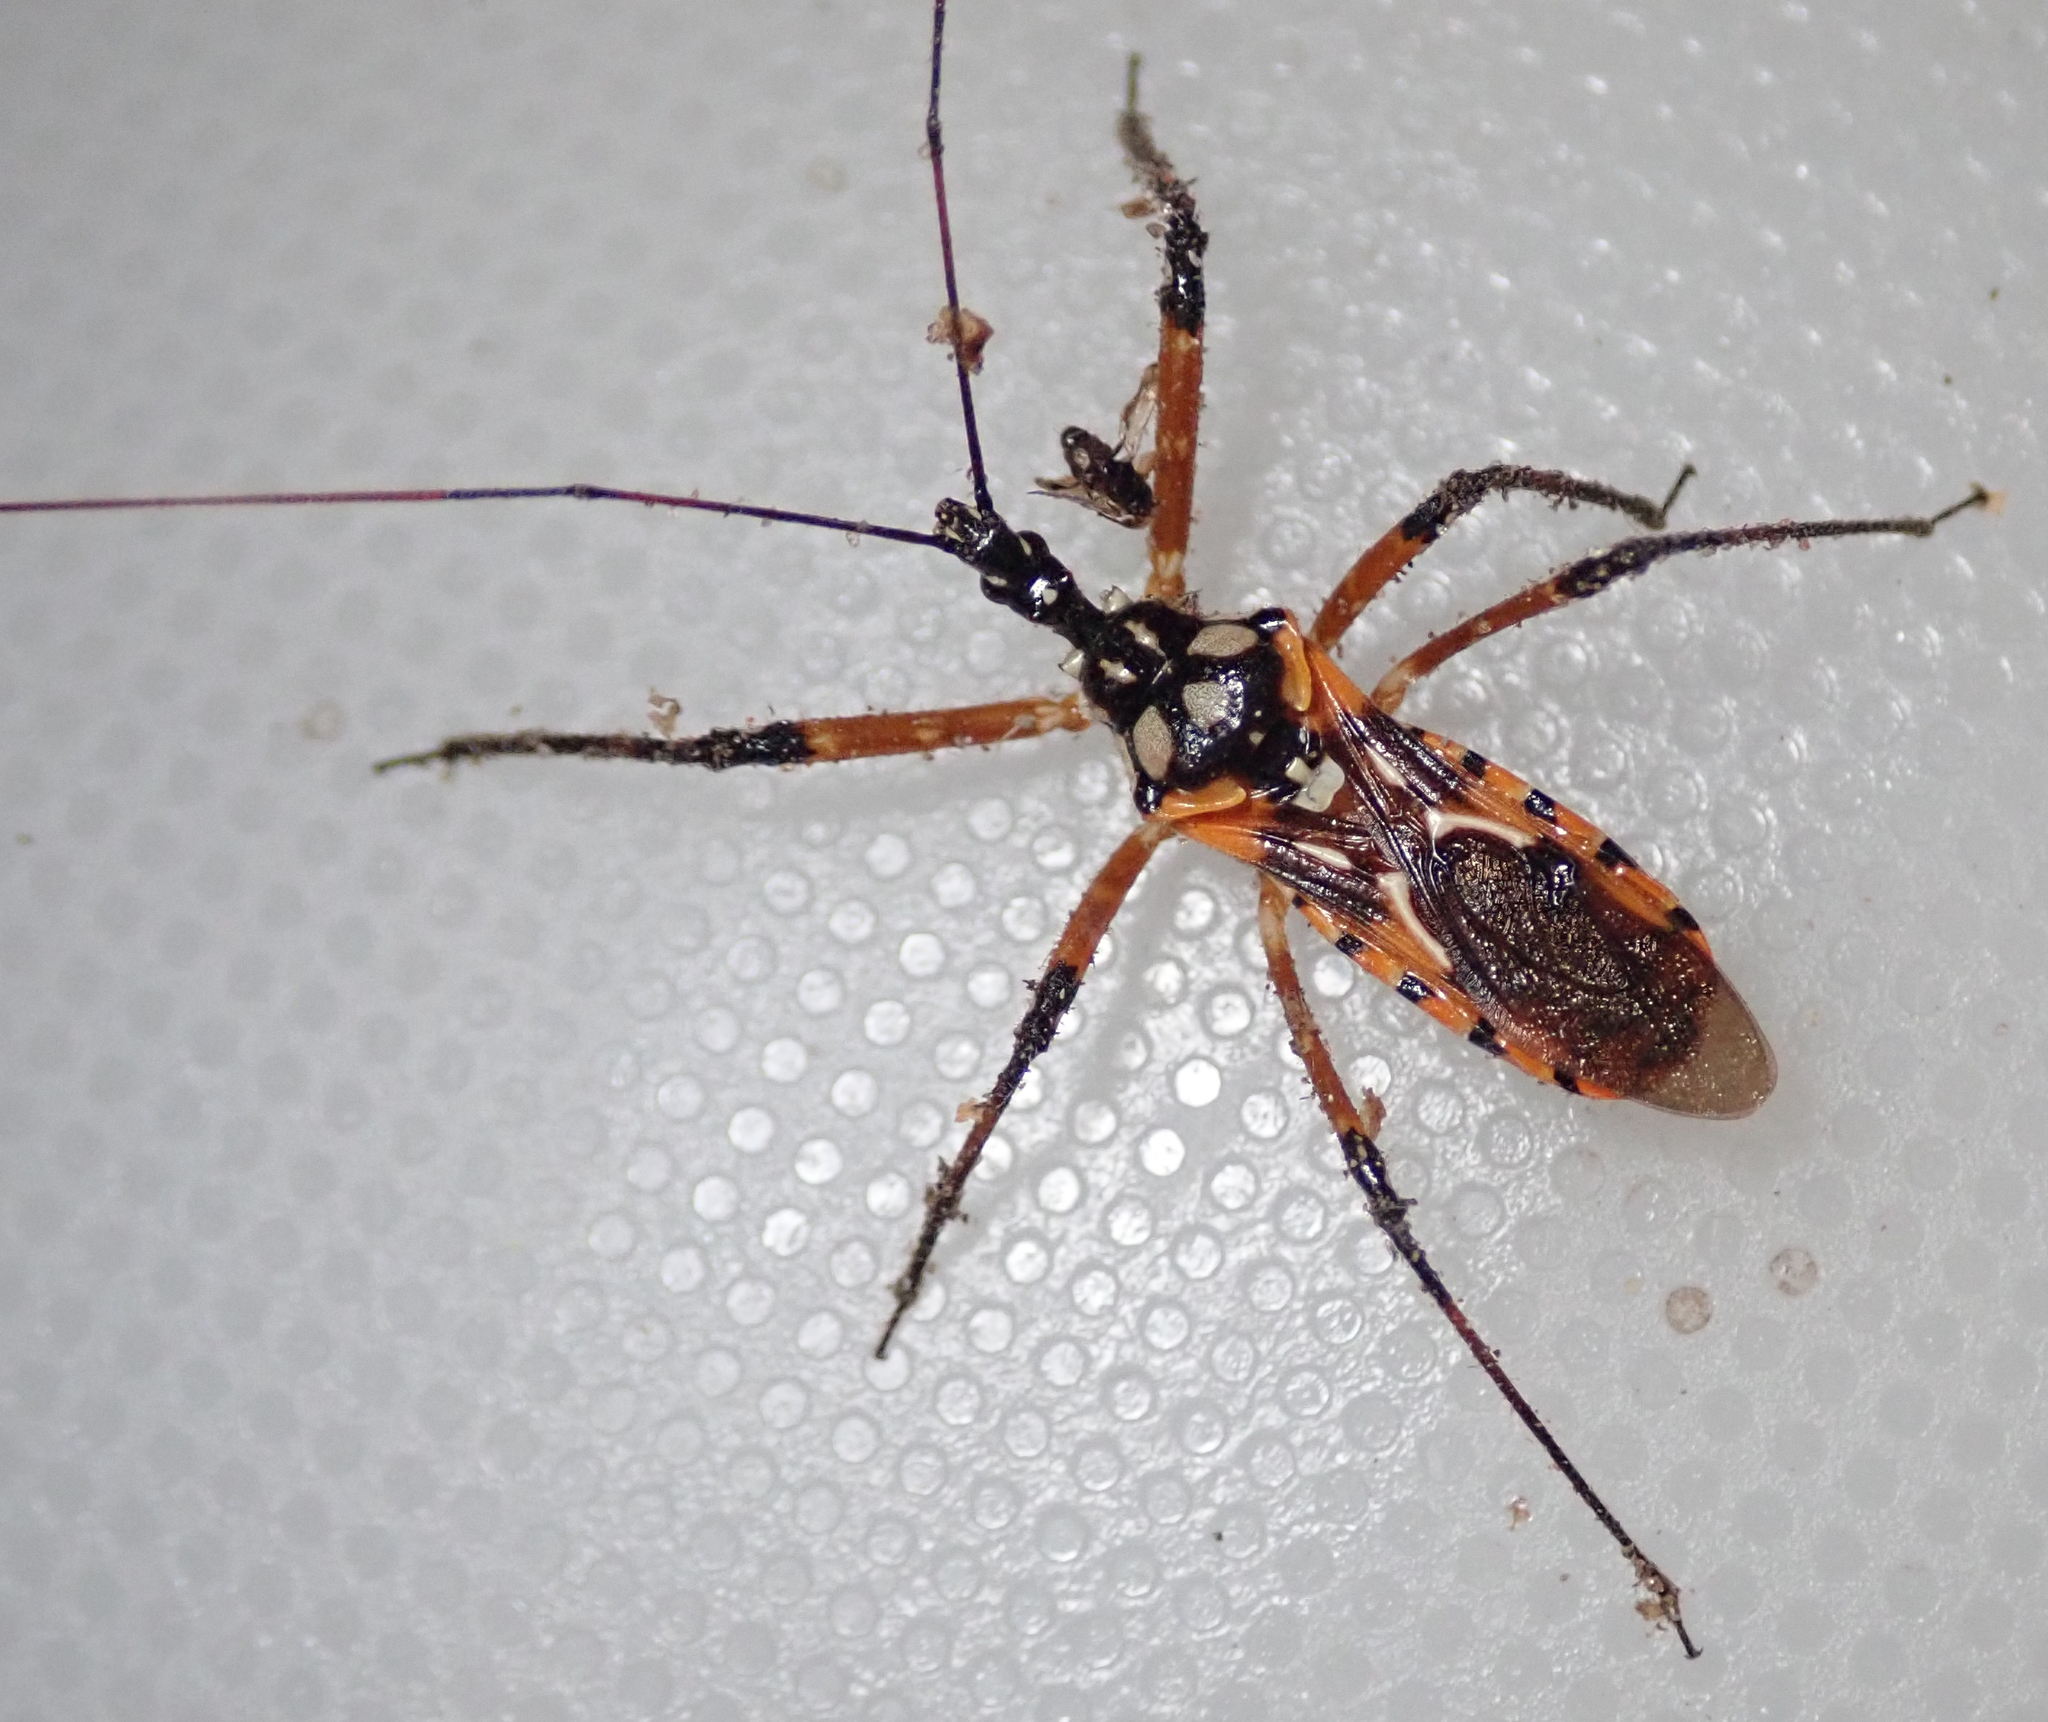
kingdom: Animalia
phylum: Arthropoda
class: Insecta
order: Hemiptera
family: Reduviidae
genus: Cosmolestes
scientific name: Cosmolestes pictus
